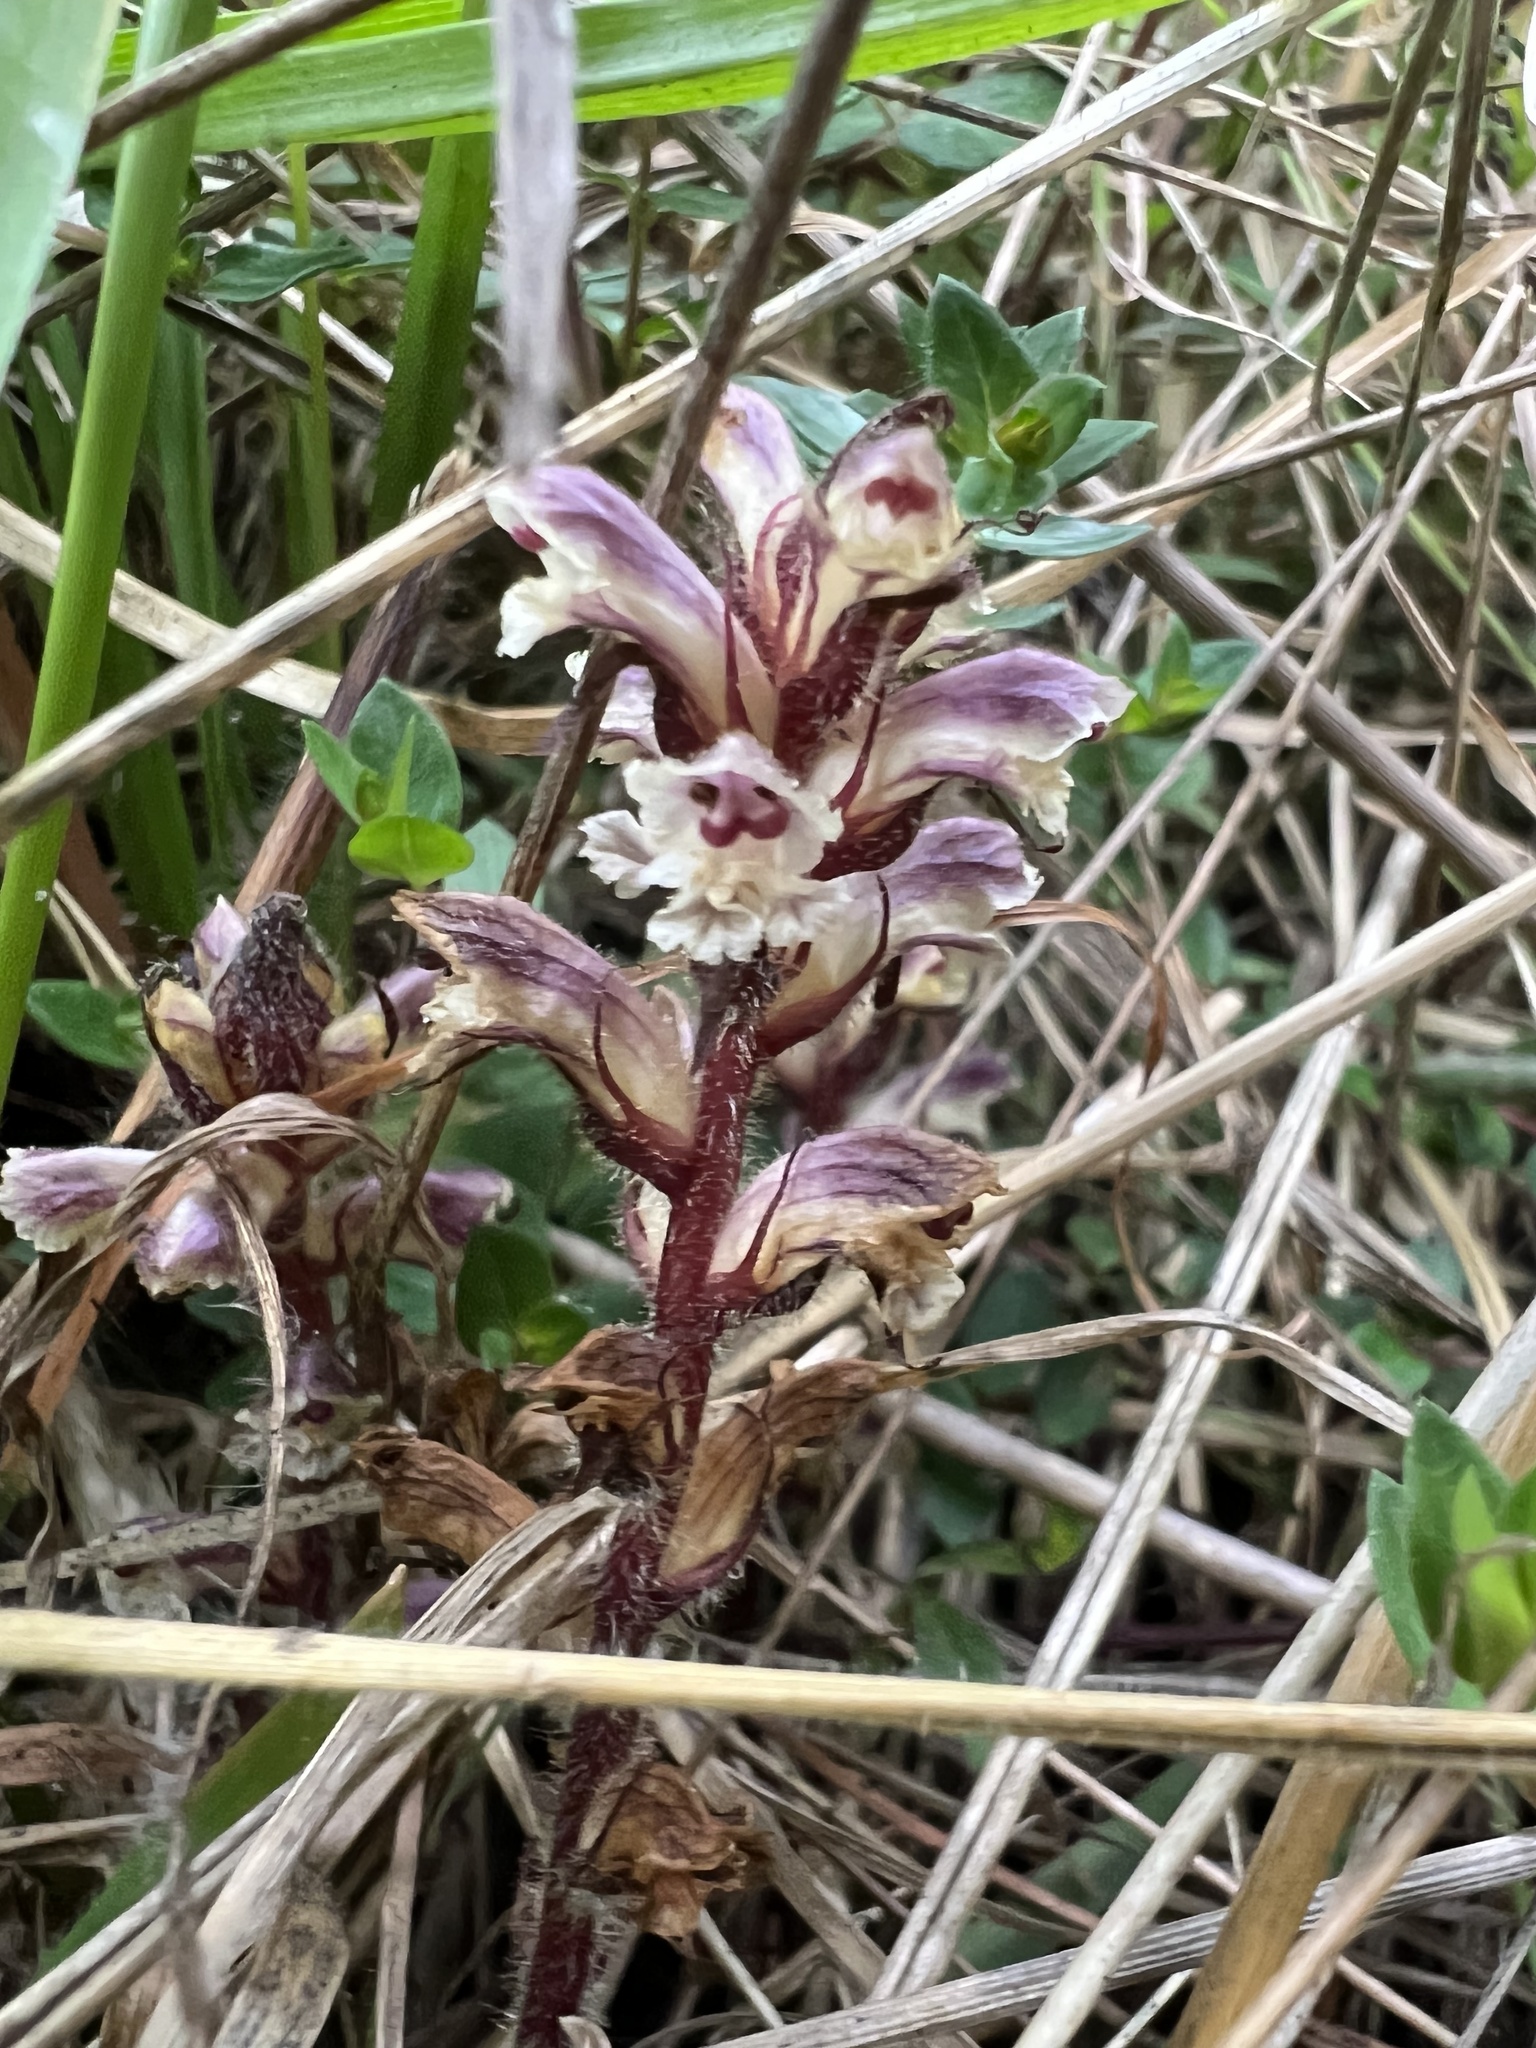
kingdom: Plantae
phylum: Tracheophyta
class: Magnoliopsida
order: Lamiales
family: Orobanchaceae
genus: Orobanche
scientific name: Orobanche minor
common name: Common broomrape
